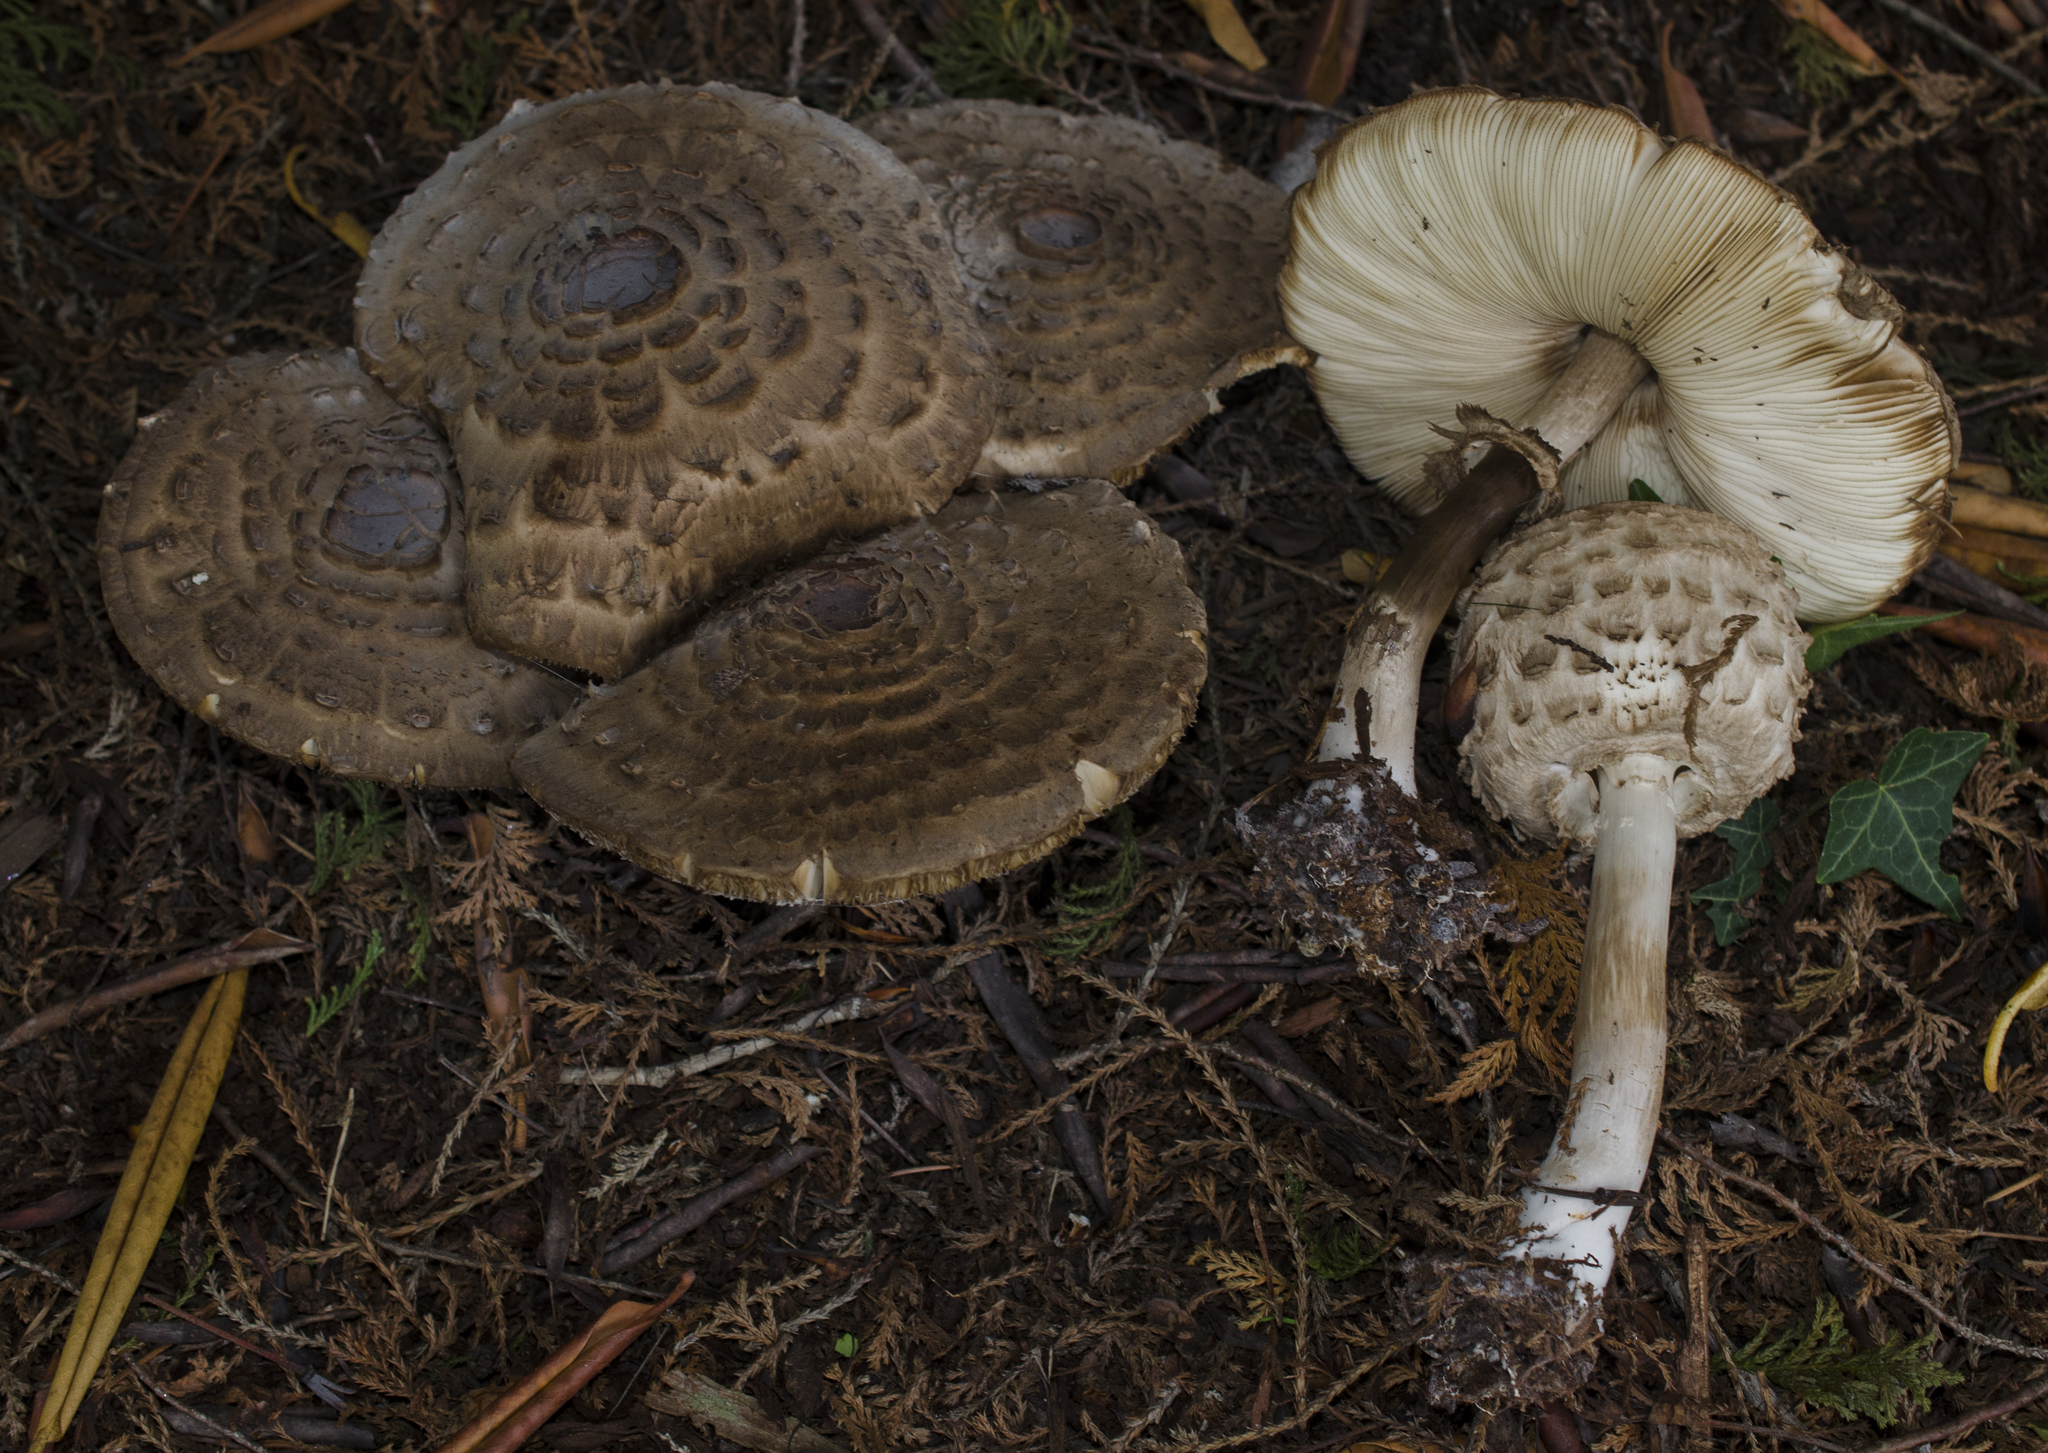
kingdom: Fungi
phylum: Basidiomycota
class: Agaricomycetes
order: Agaricales
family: Agaricaceae
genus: Chlorophyllum
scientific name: Chlorophyllum olivieri
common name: Conifer parasol
